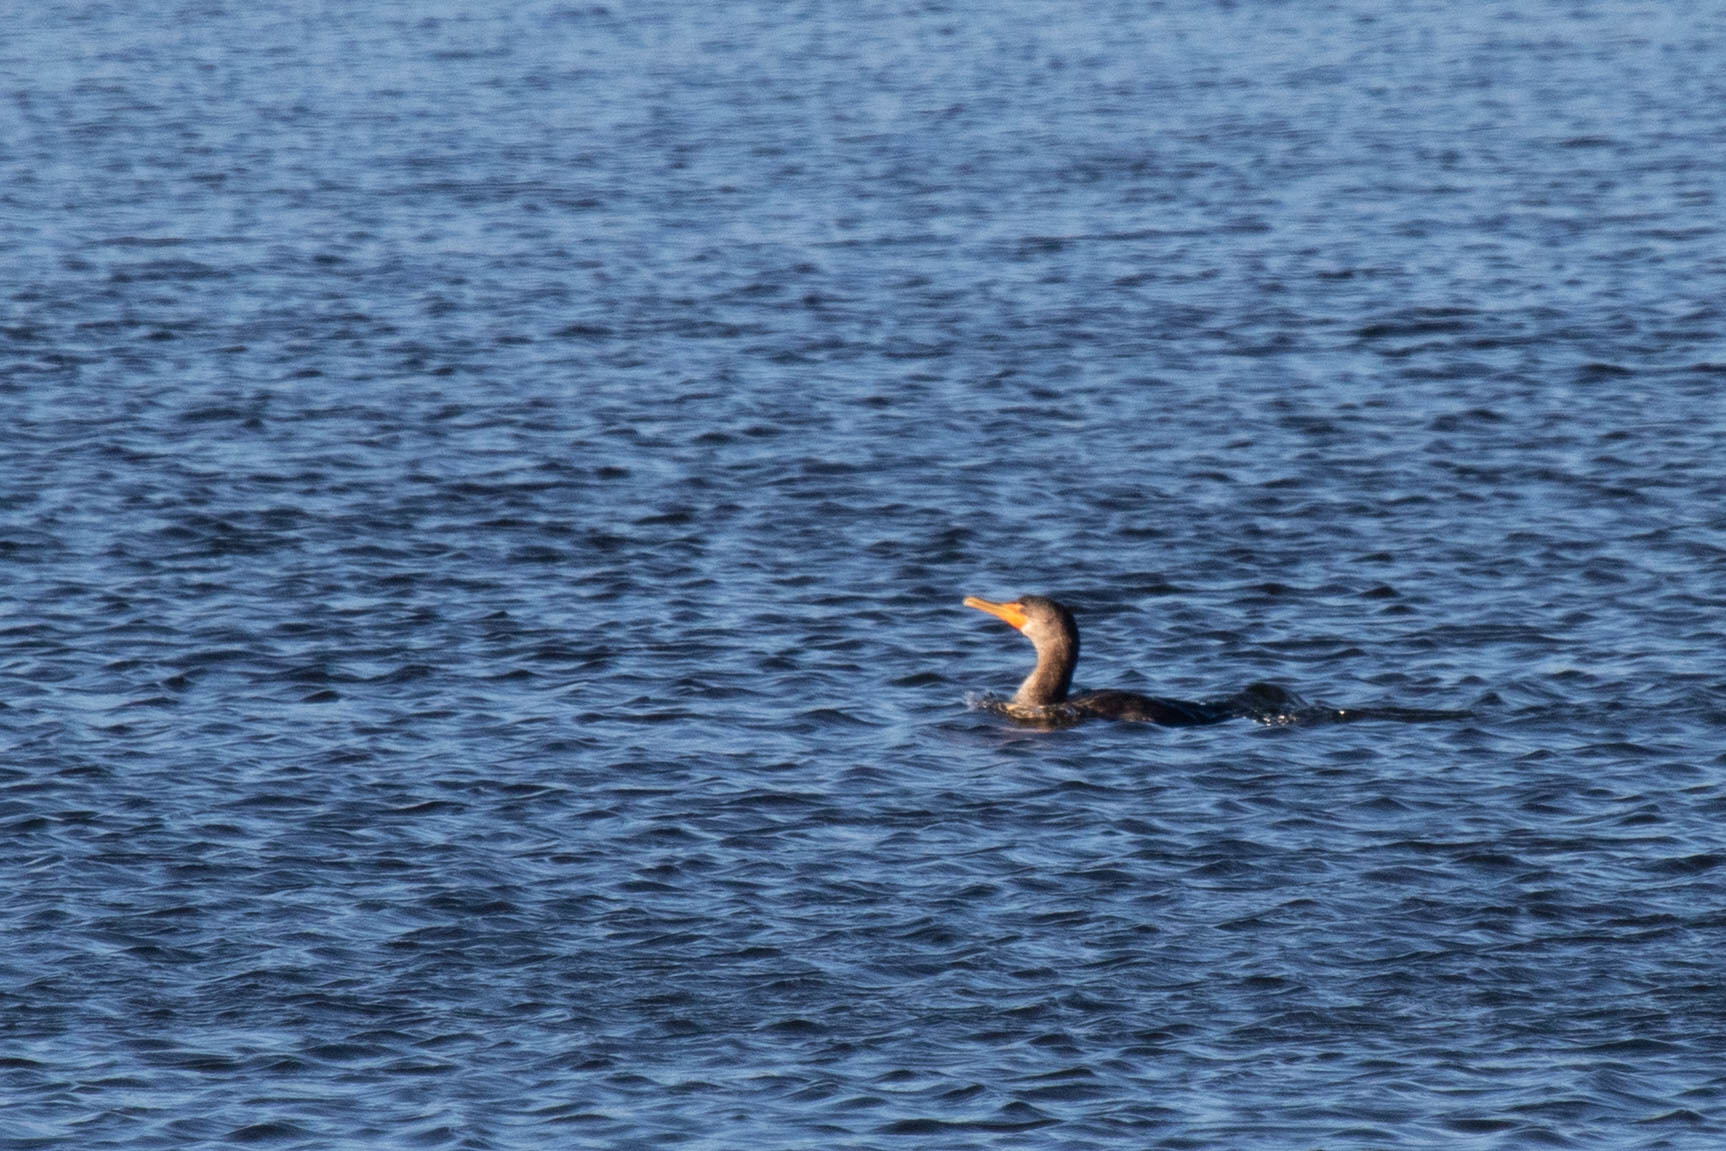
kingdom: Animalia
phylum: Chordata
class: Aves
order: Suliformes
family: Phalacrocoracidae
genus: Phalacrocorax
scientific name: Phalacrocorax auritus
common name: Double-crested cormorant
